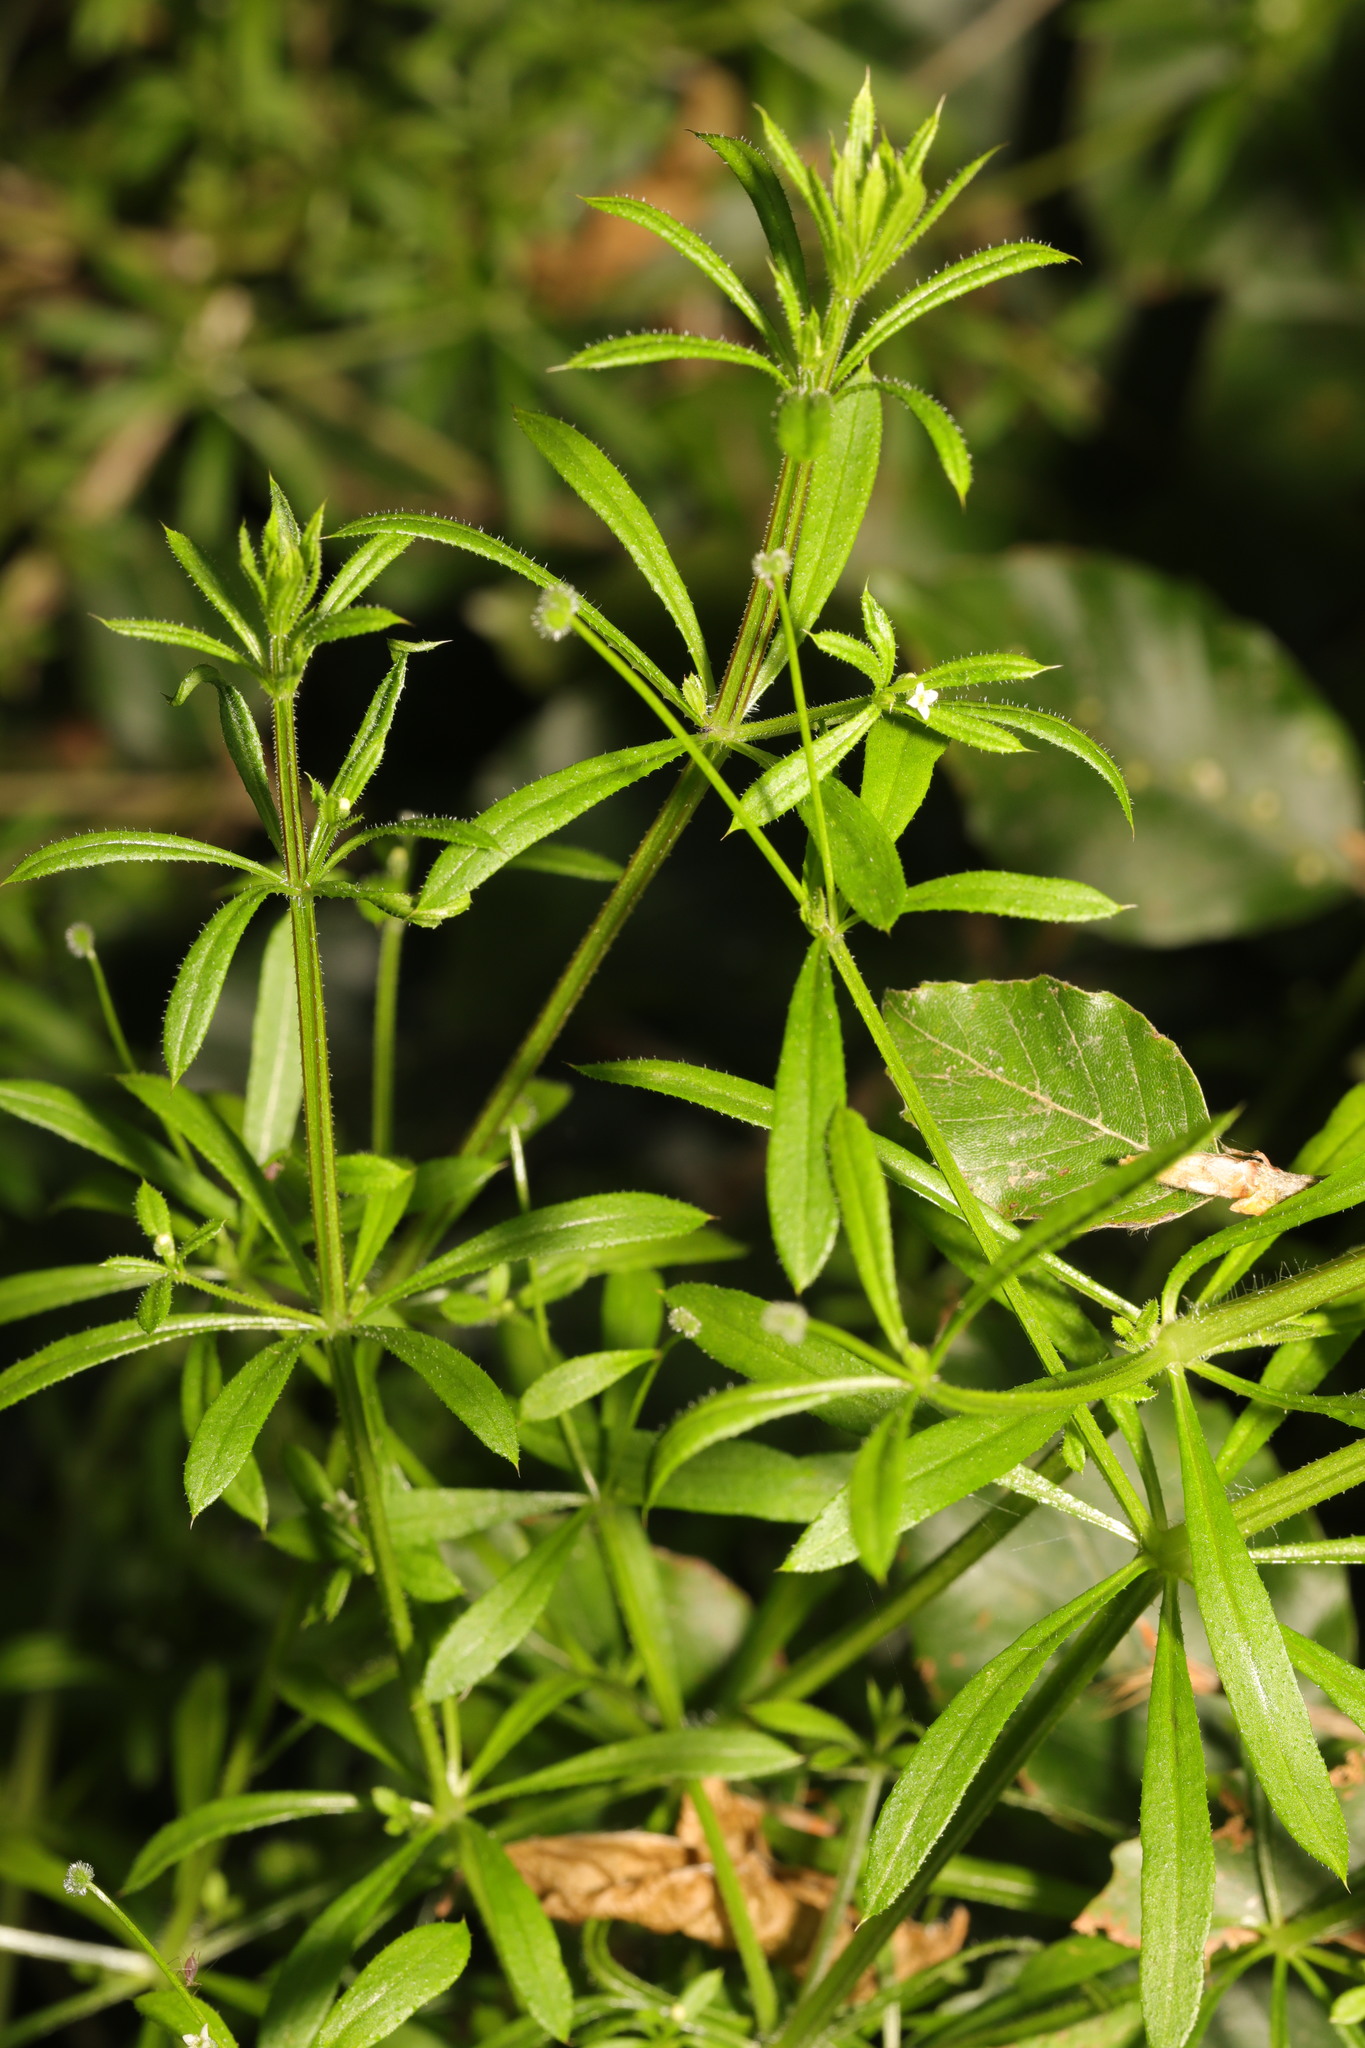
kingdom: Plantae
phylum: Tracheophyta
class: Magnoliopsida
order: Gentianales
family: Rubiaceae
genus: Galium
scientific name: Galium aparine
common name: Cleavers
